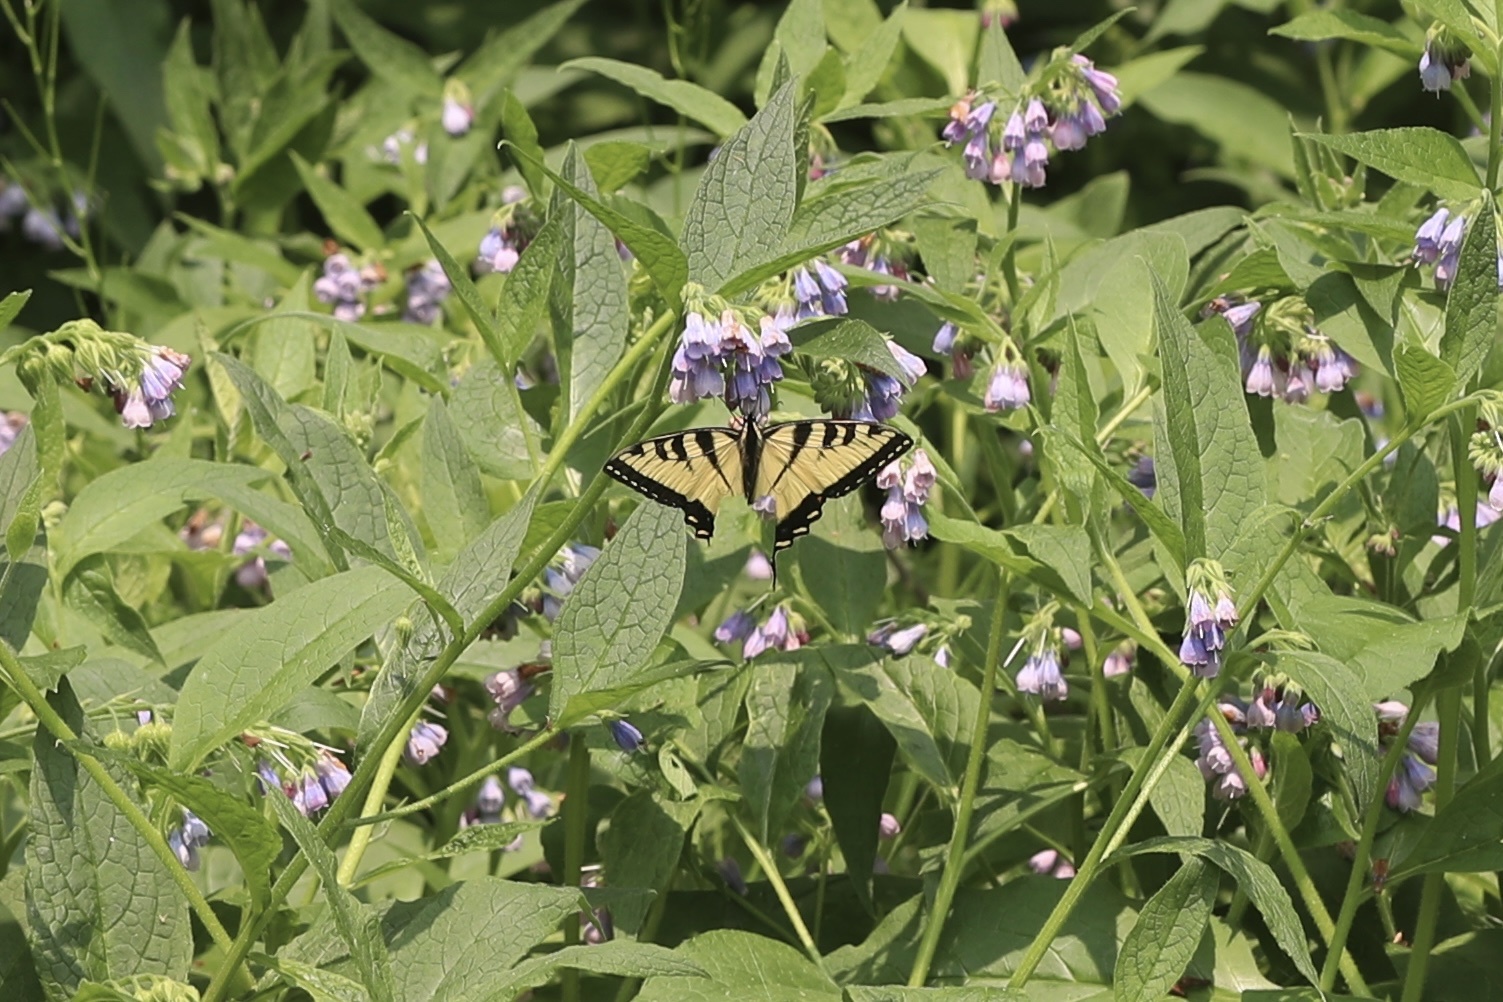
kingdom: Animalia
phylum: Arthropoda
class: Insecta
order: Lepidoptera
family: Papilionidae
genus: Papilio
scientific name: Papilio canadensis
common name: Canadian tiger swallowtail
